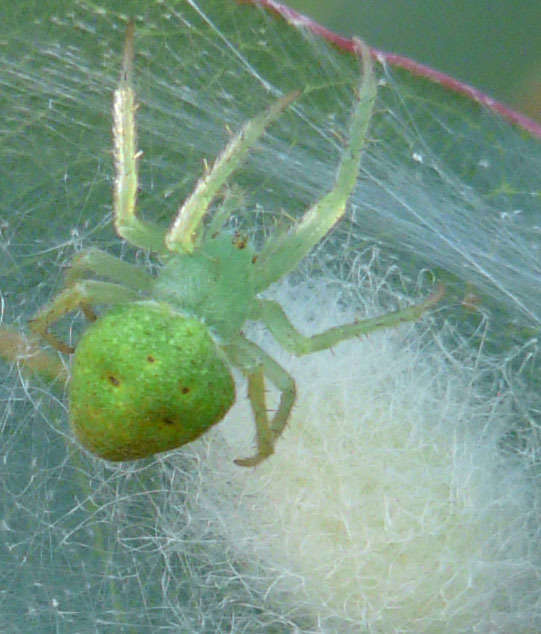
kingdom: Animalia
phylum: Arthropoda
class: Arachnida
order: Araneae
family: Araneidae
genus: Araneus
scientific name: Araneus circulissparsus
